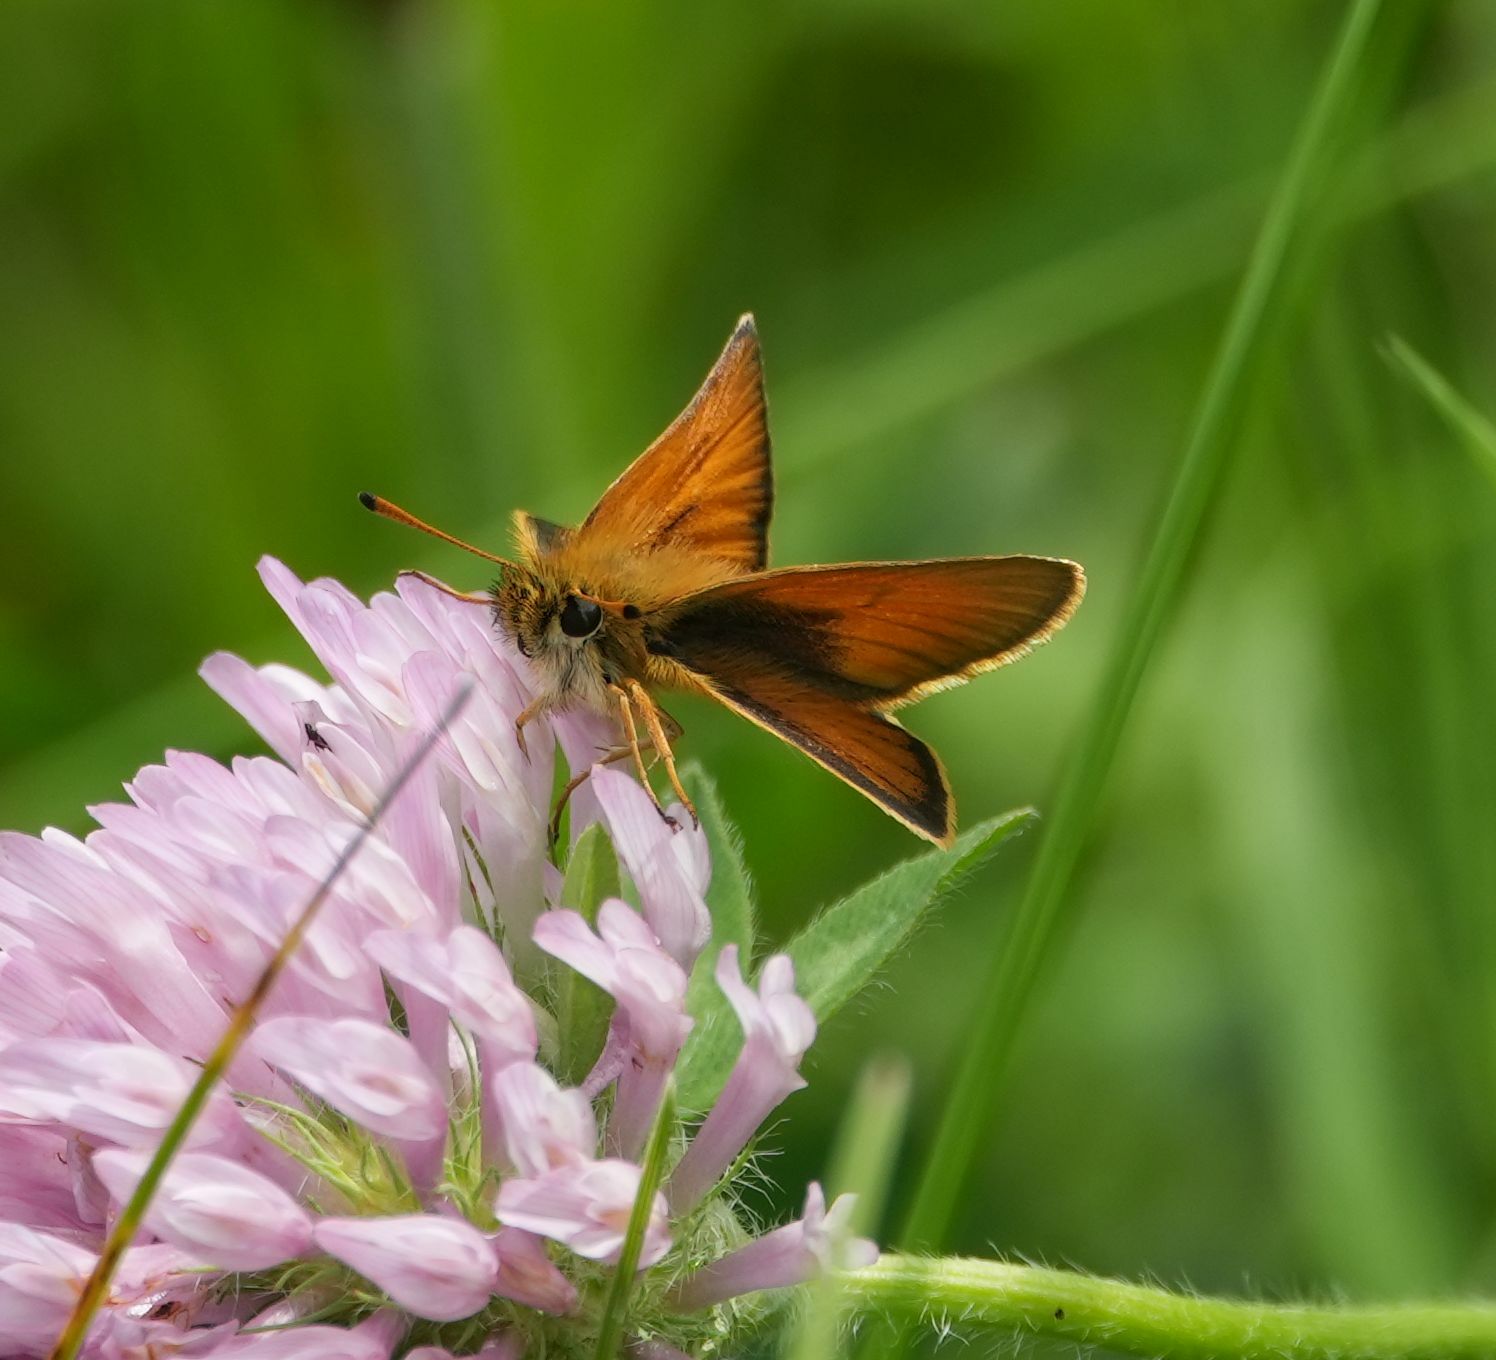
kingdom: Animalia
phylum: Arthropoda
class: Insecta
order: Lepidoptera
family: Hesperiidae
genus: Thymelicus
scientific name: Thymelicus lineola
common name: Essex skipper
